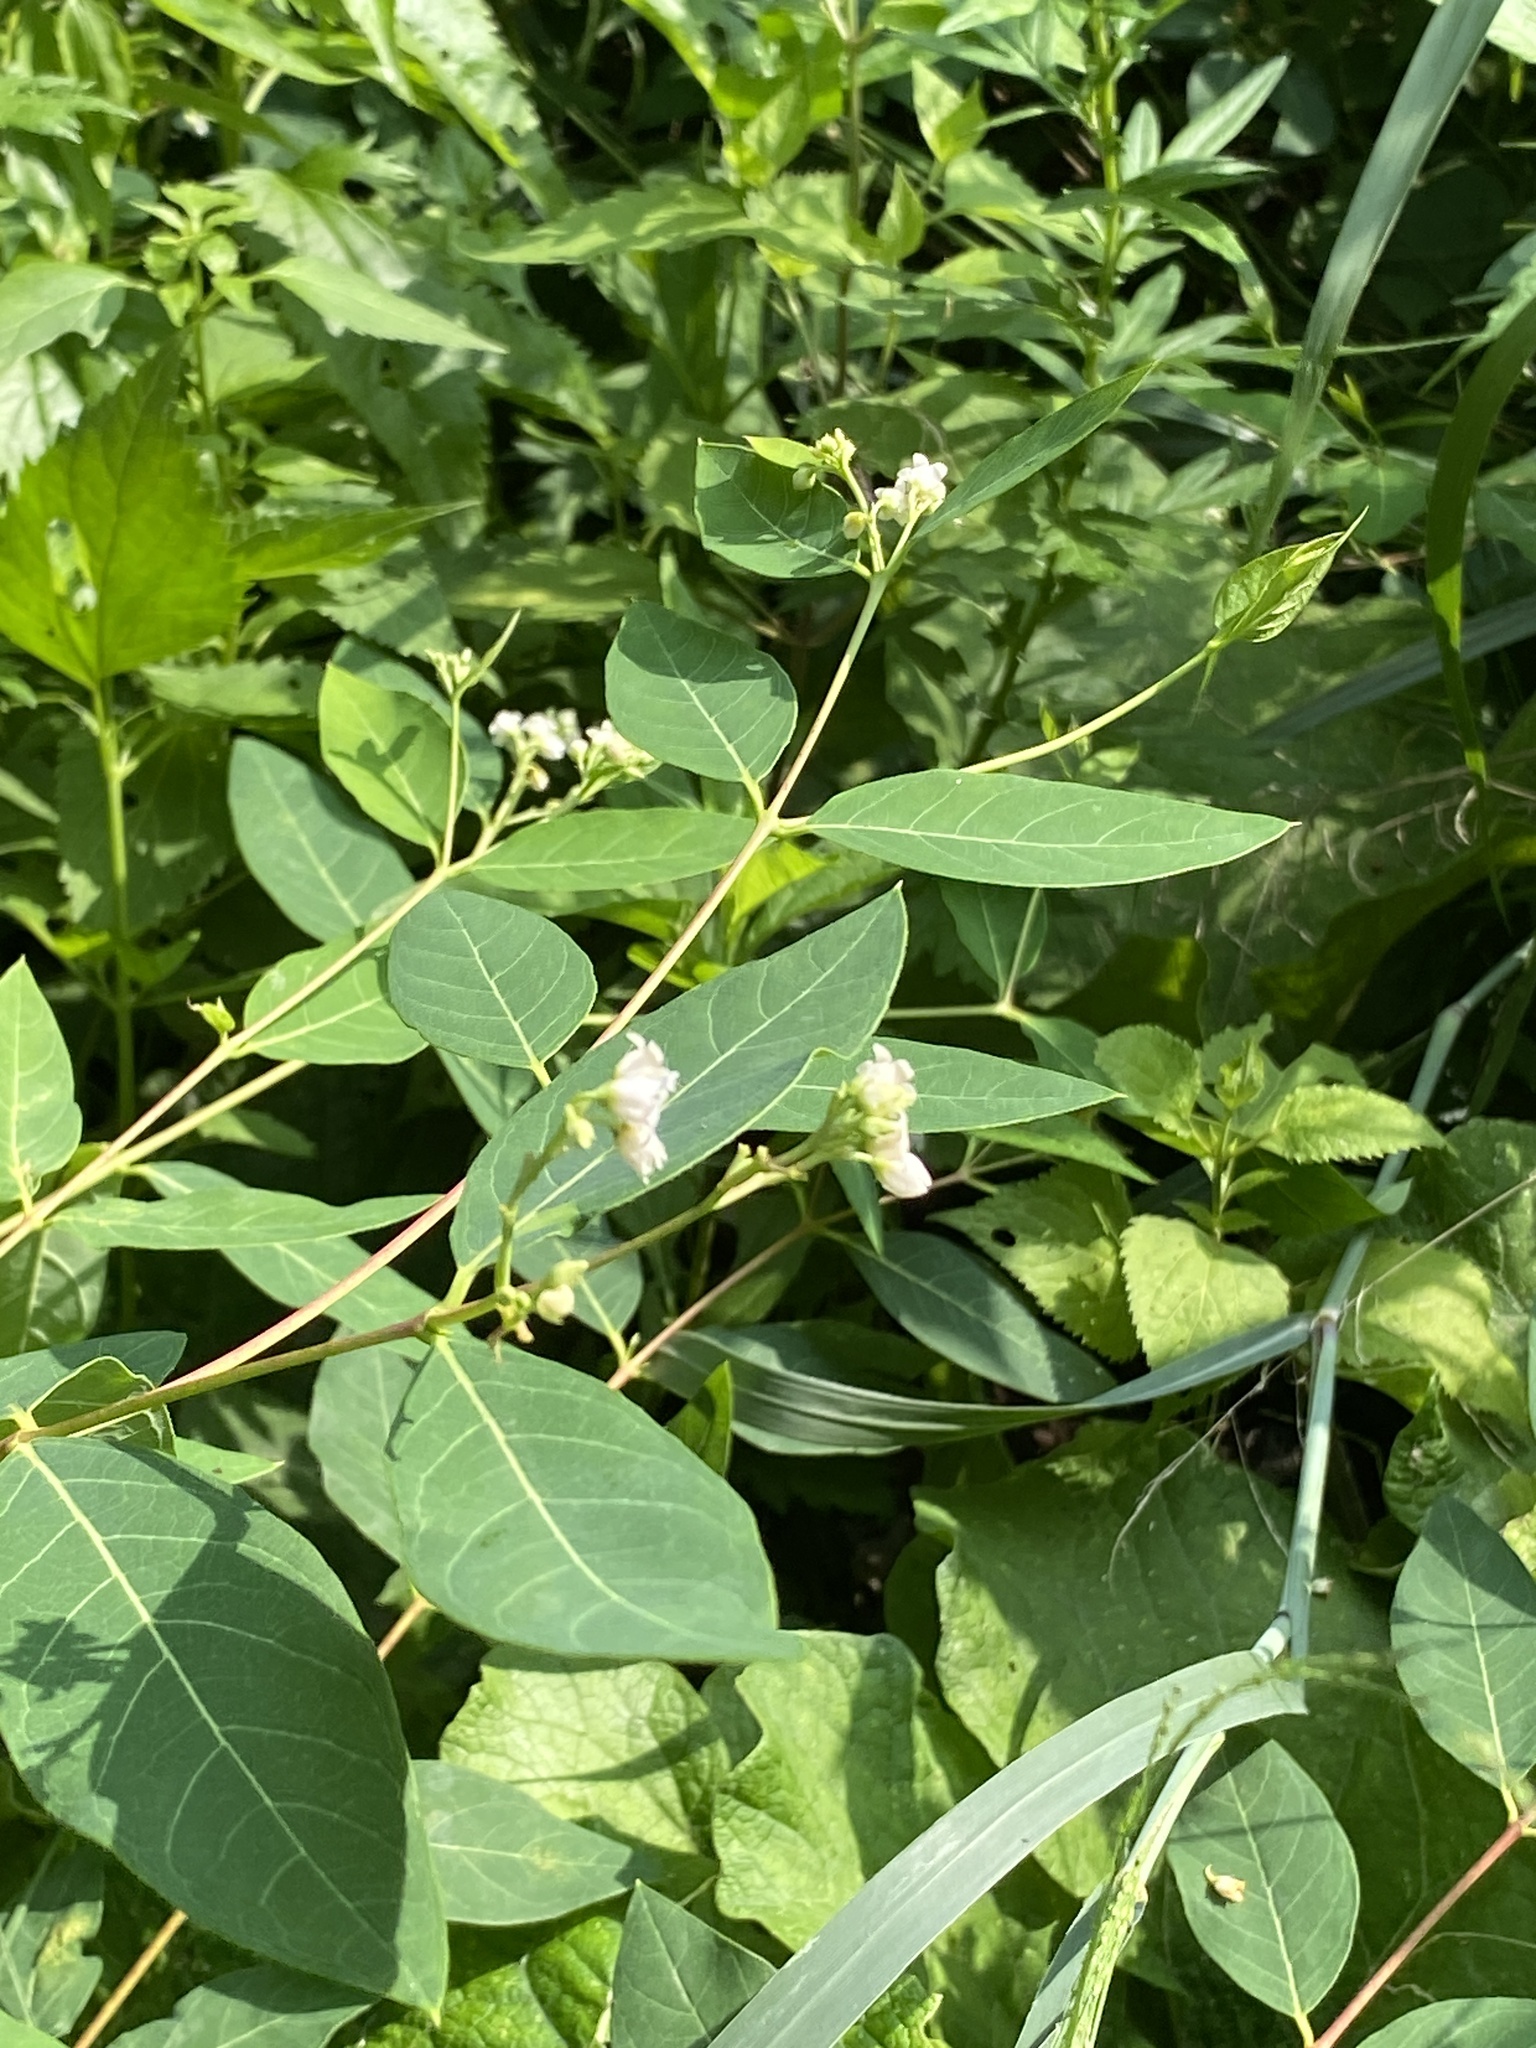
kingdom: Plantae
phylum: Tracheophyta
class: Magnoliopsida
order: Gentianales
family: Apocynaceae
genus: Apocynum
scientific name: Apocynum androsaemifolium
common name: Spreading dogbane
